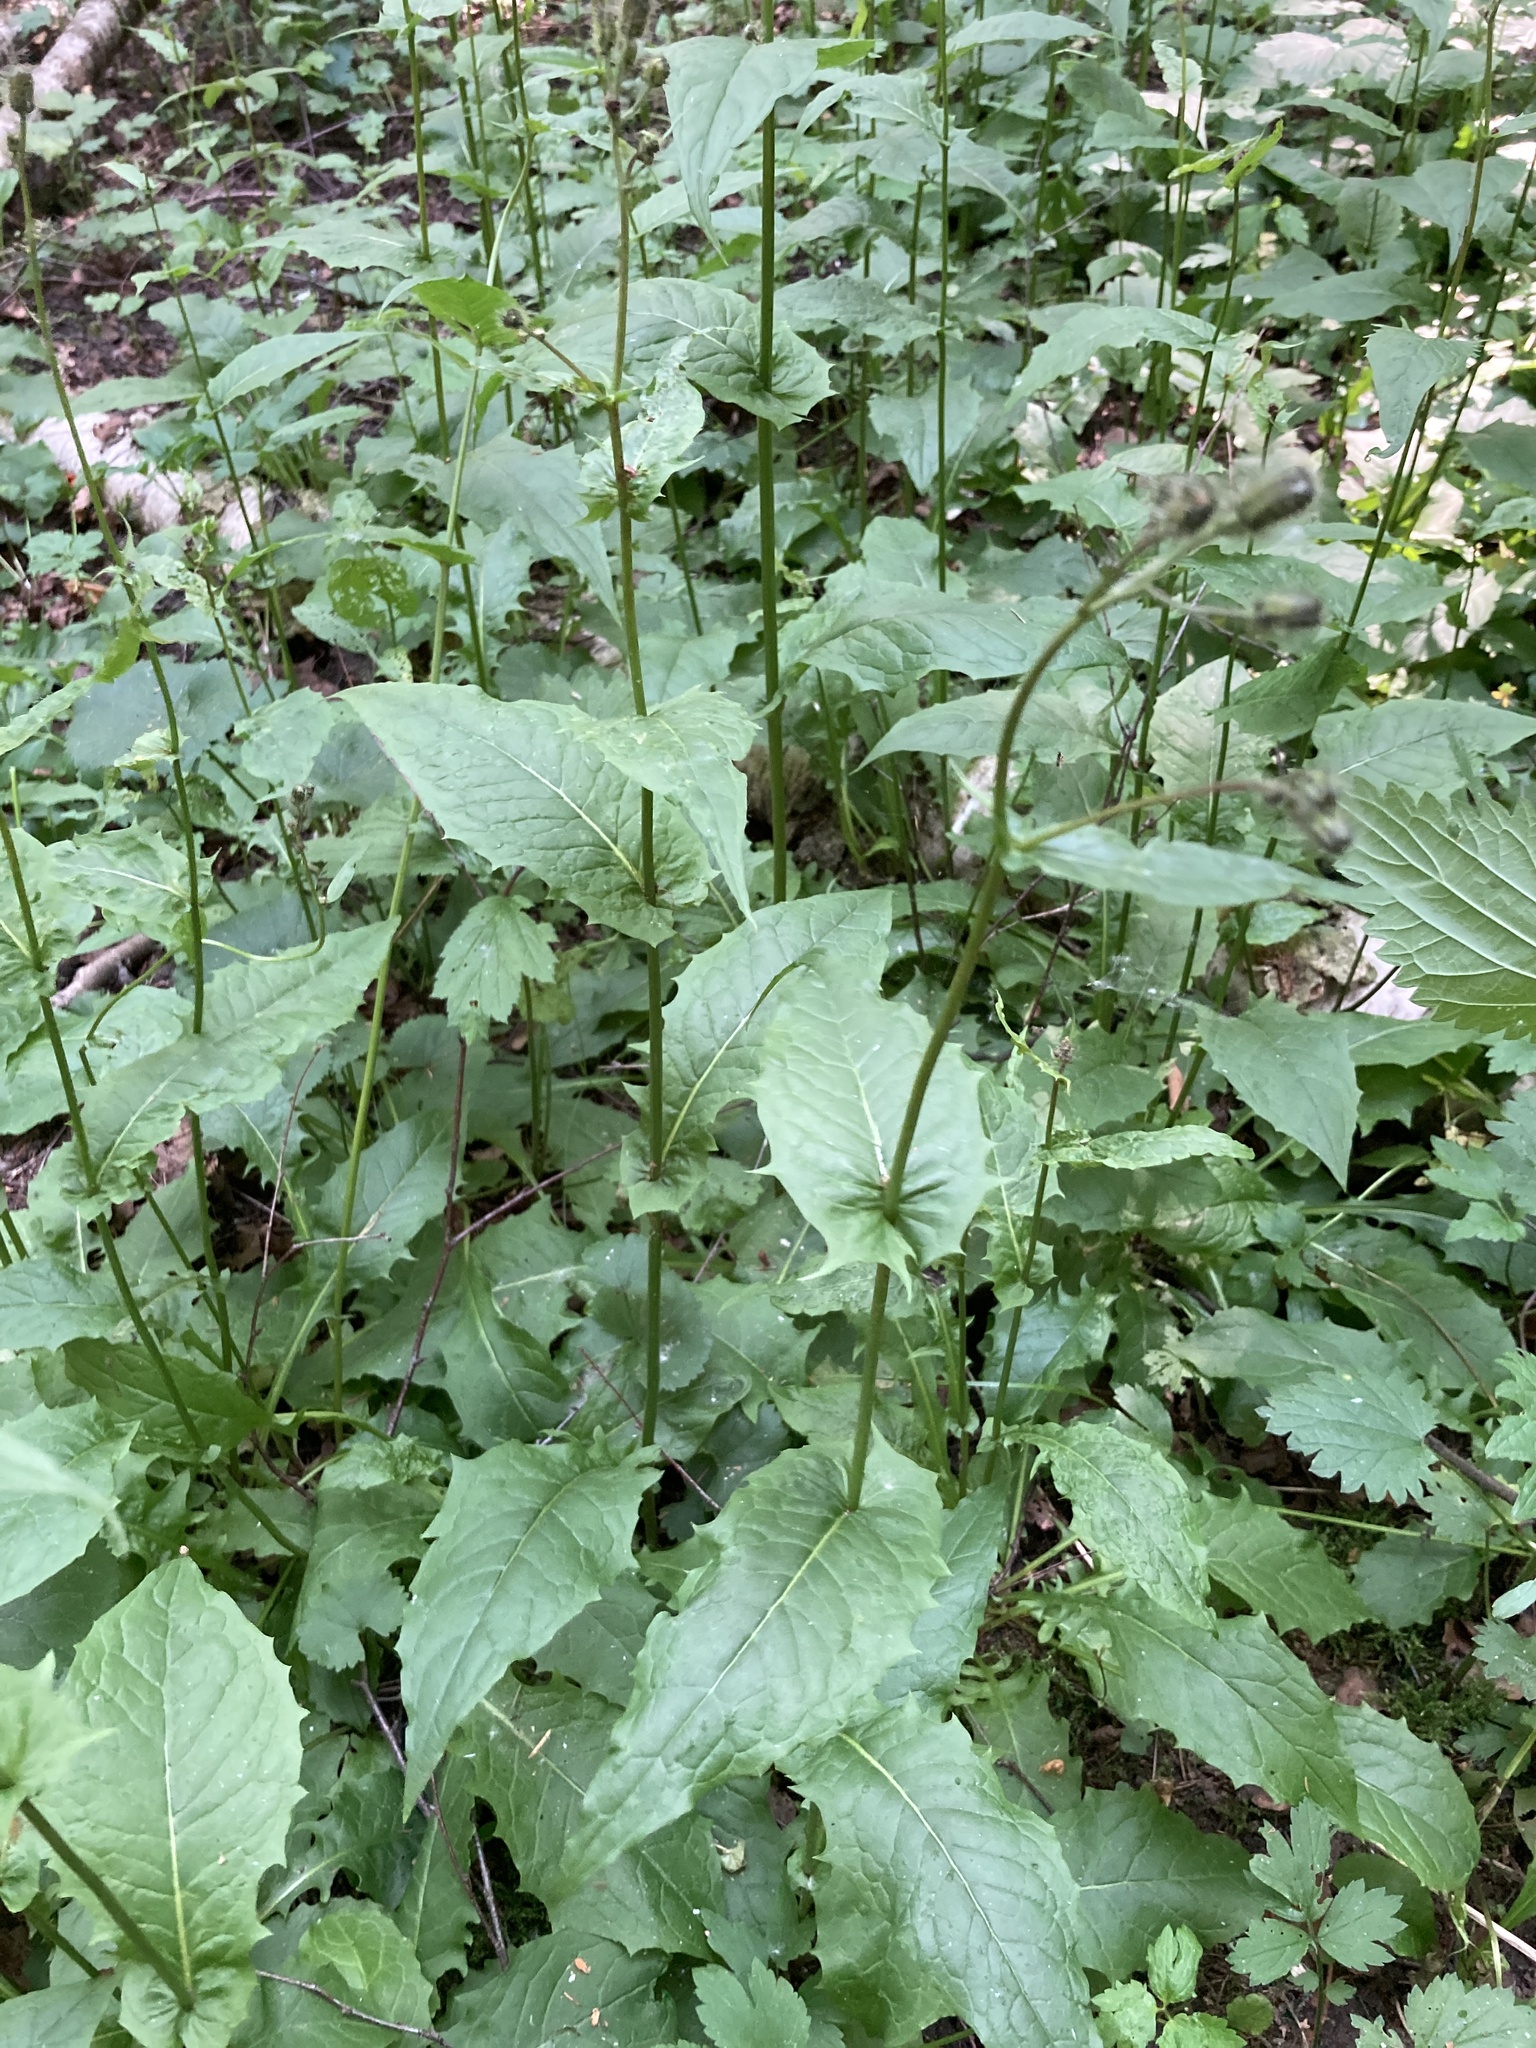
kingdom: Plantae
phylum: Tracheophyta
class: Magnoliopsida
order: Asterales
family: Asteraceae
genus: Crepis
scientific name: Crepis paludosa
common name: Marsh hawk's-beard
